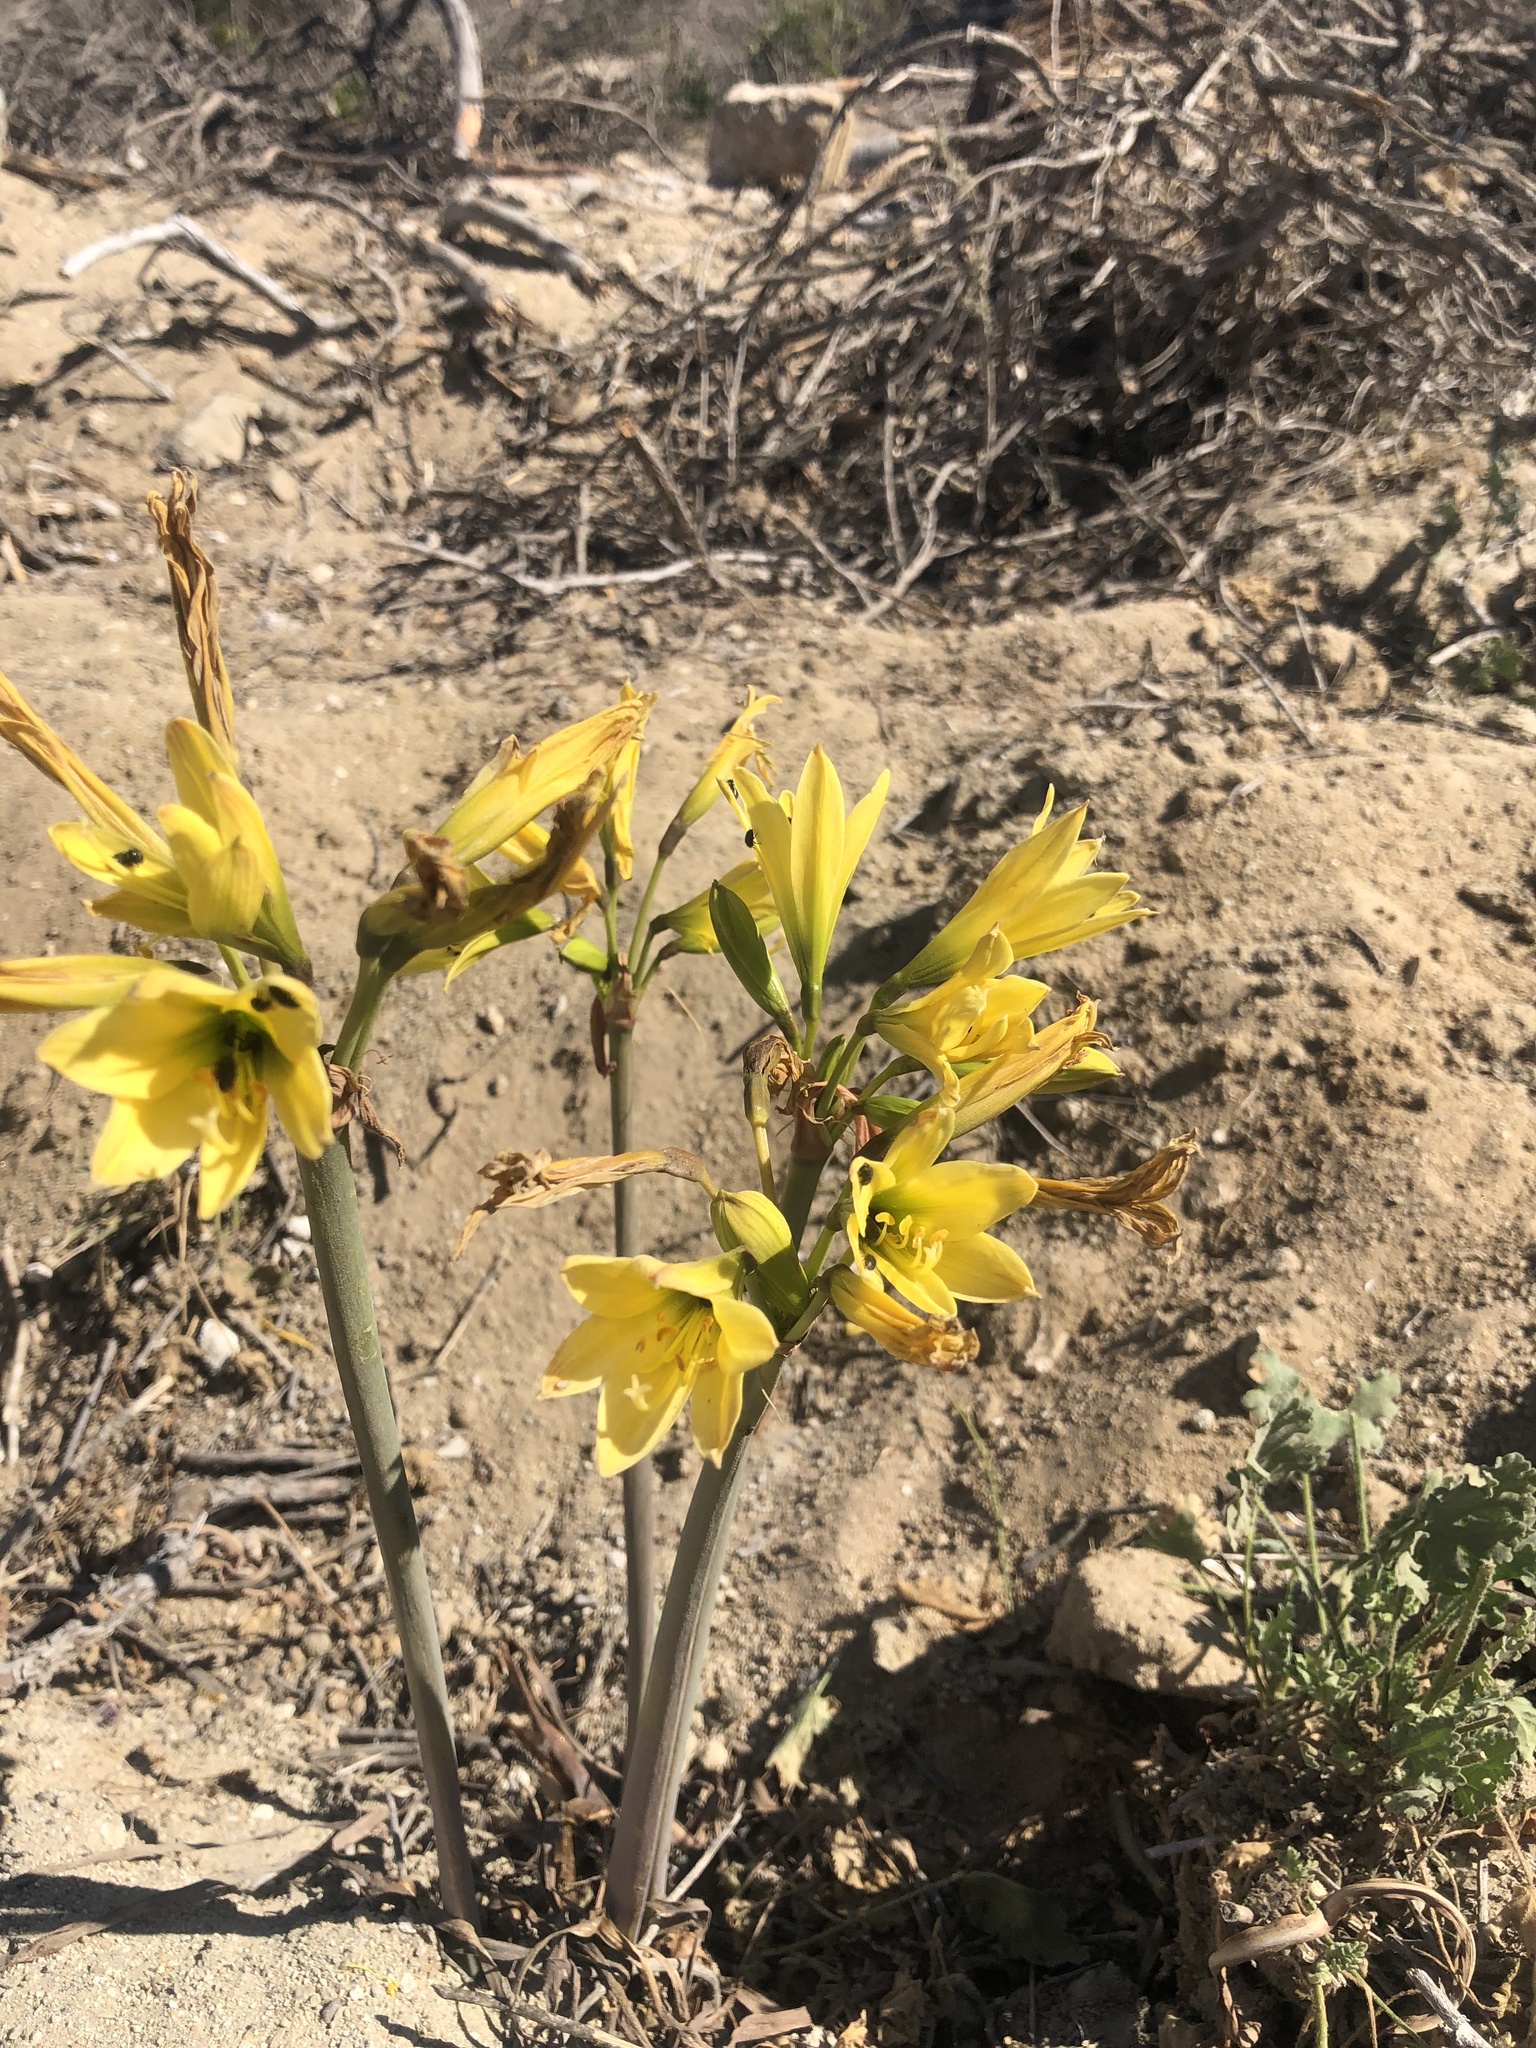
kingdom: Plantae
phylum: Tracheophyta
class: Liliopsida
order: Asparagales
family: Amaryllidaceae
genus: Zephyranthes
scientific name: Zephyranthes bagnoldii
